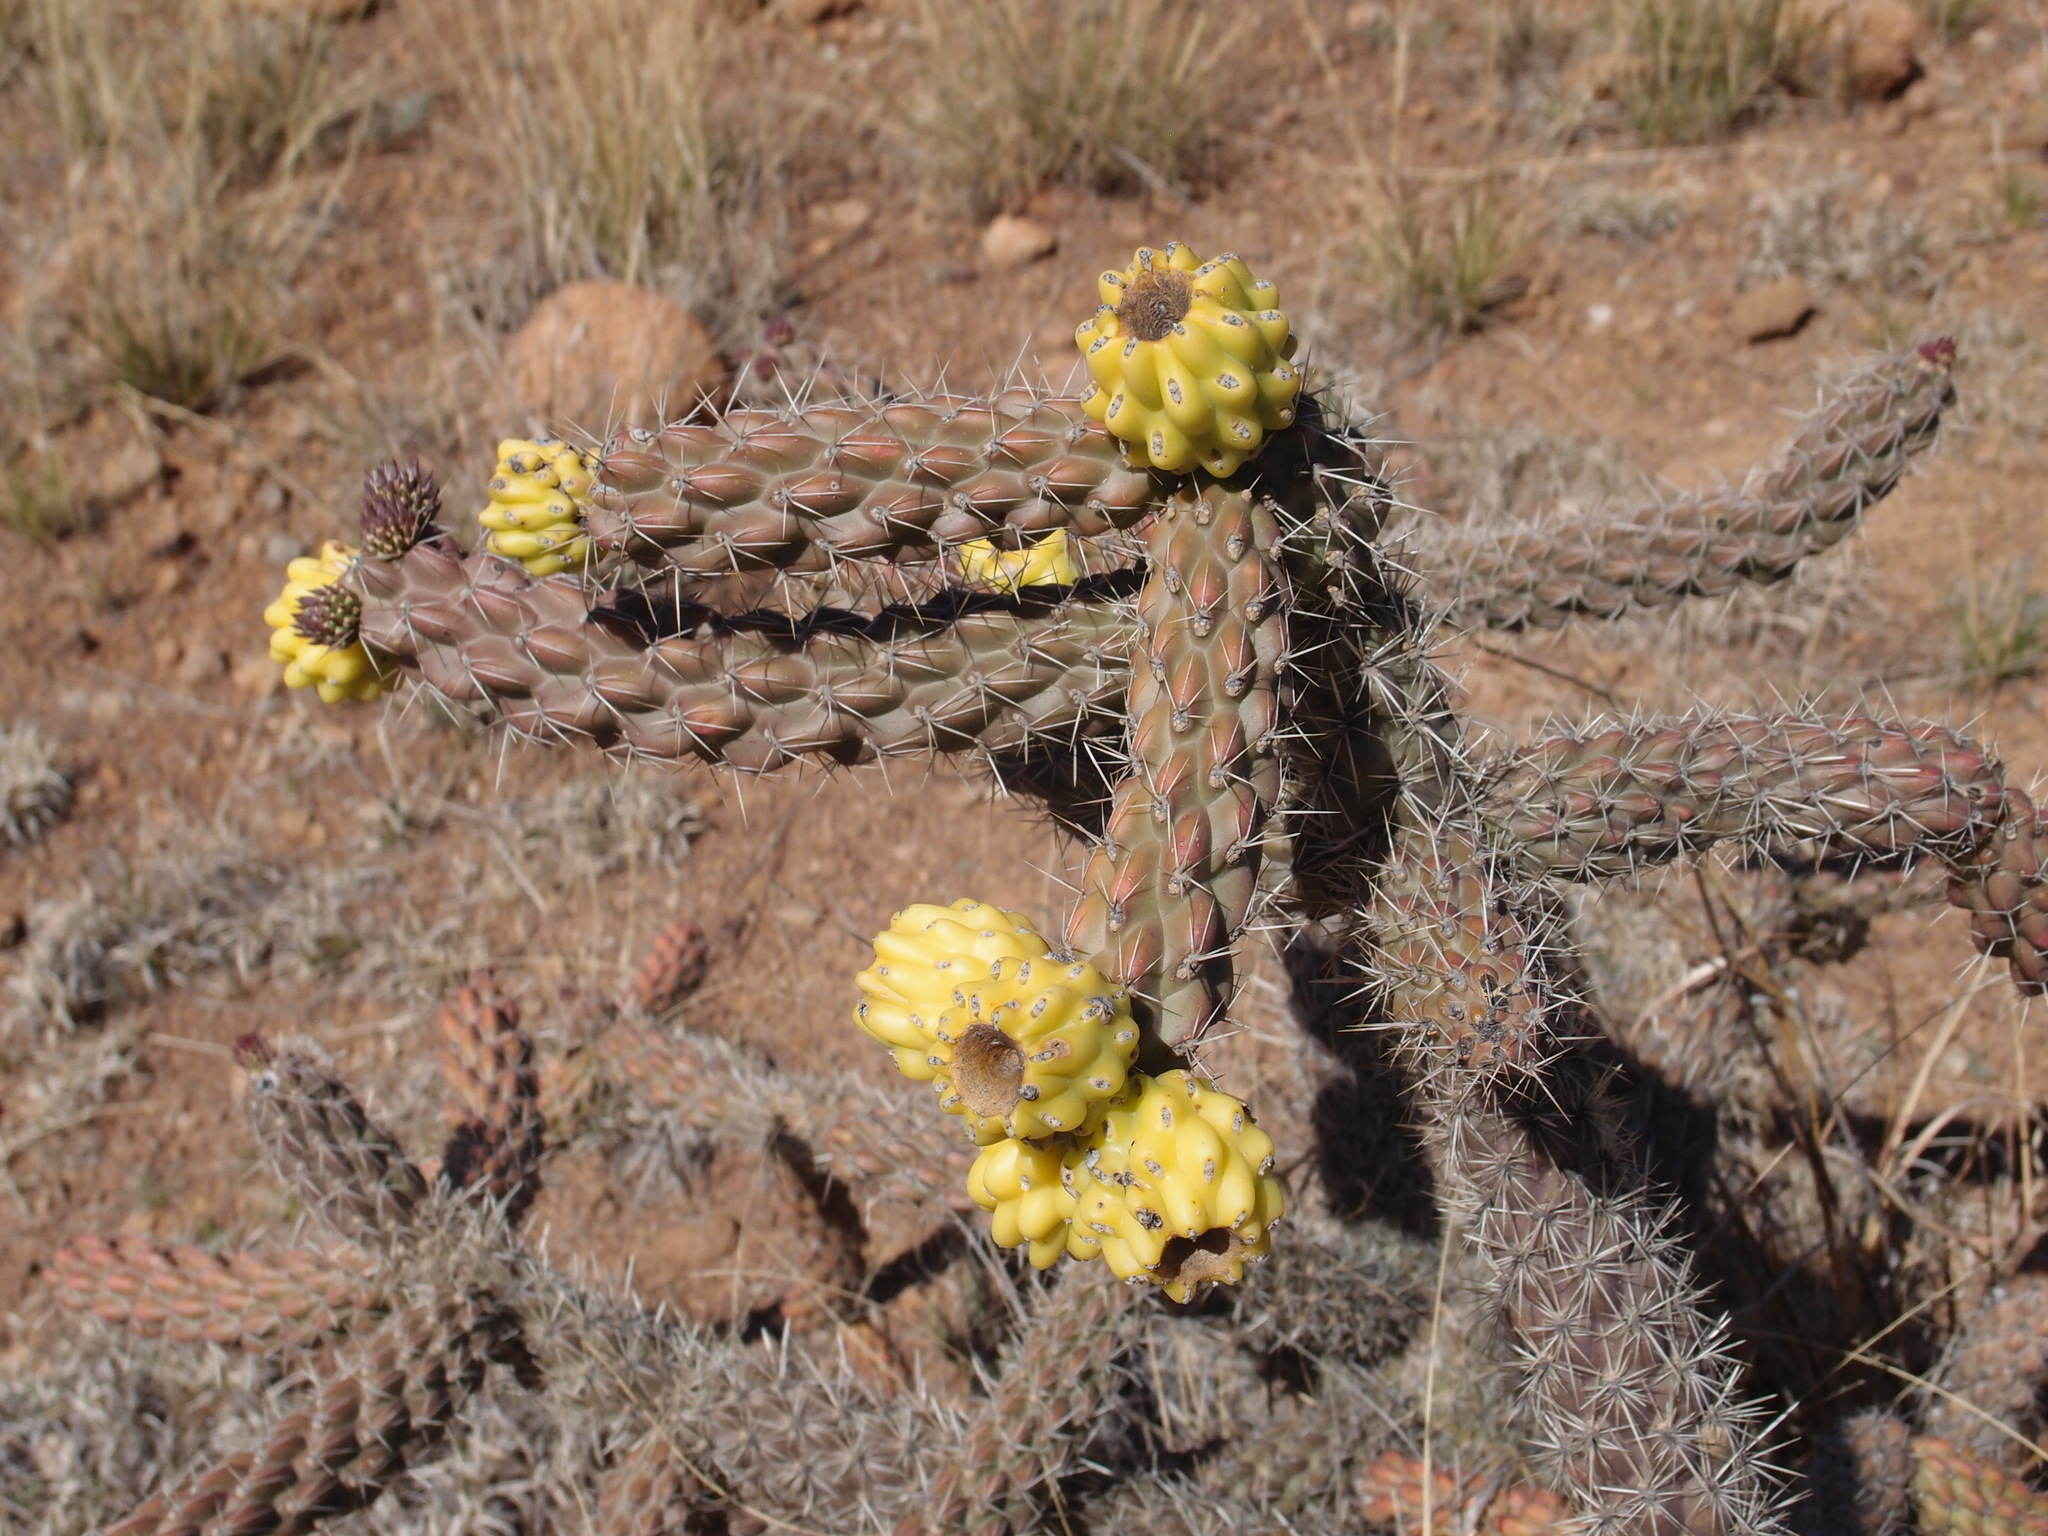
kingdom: Plantae
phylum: Tracheophyta
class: Magnoliopsida
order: Caryophyllales
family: Cactaceae
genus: Cylindropuntia
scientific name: Cylindropuntia imbricata
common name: Candelabrum cactus
